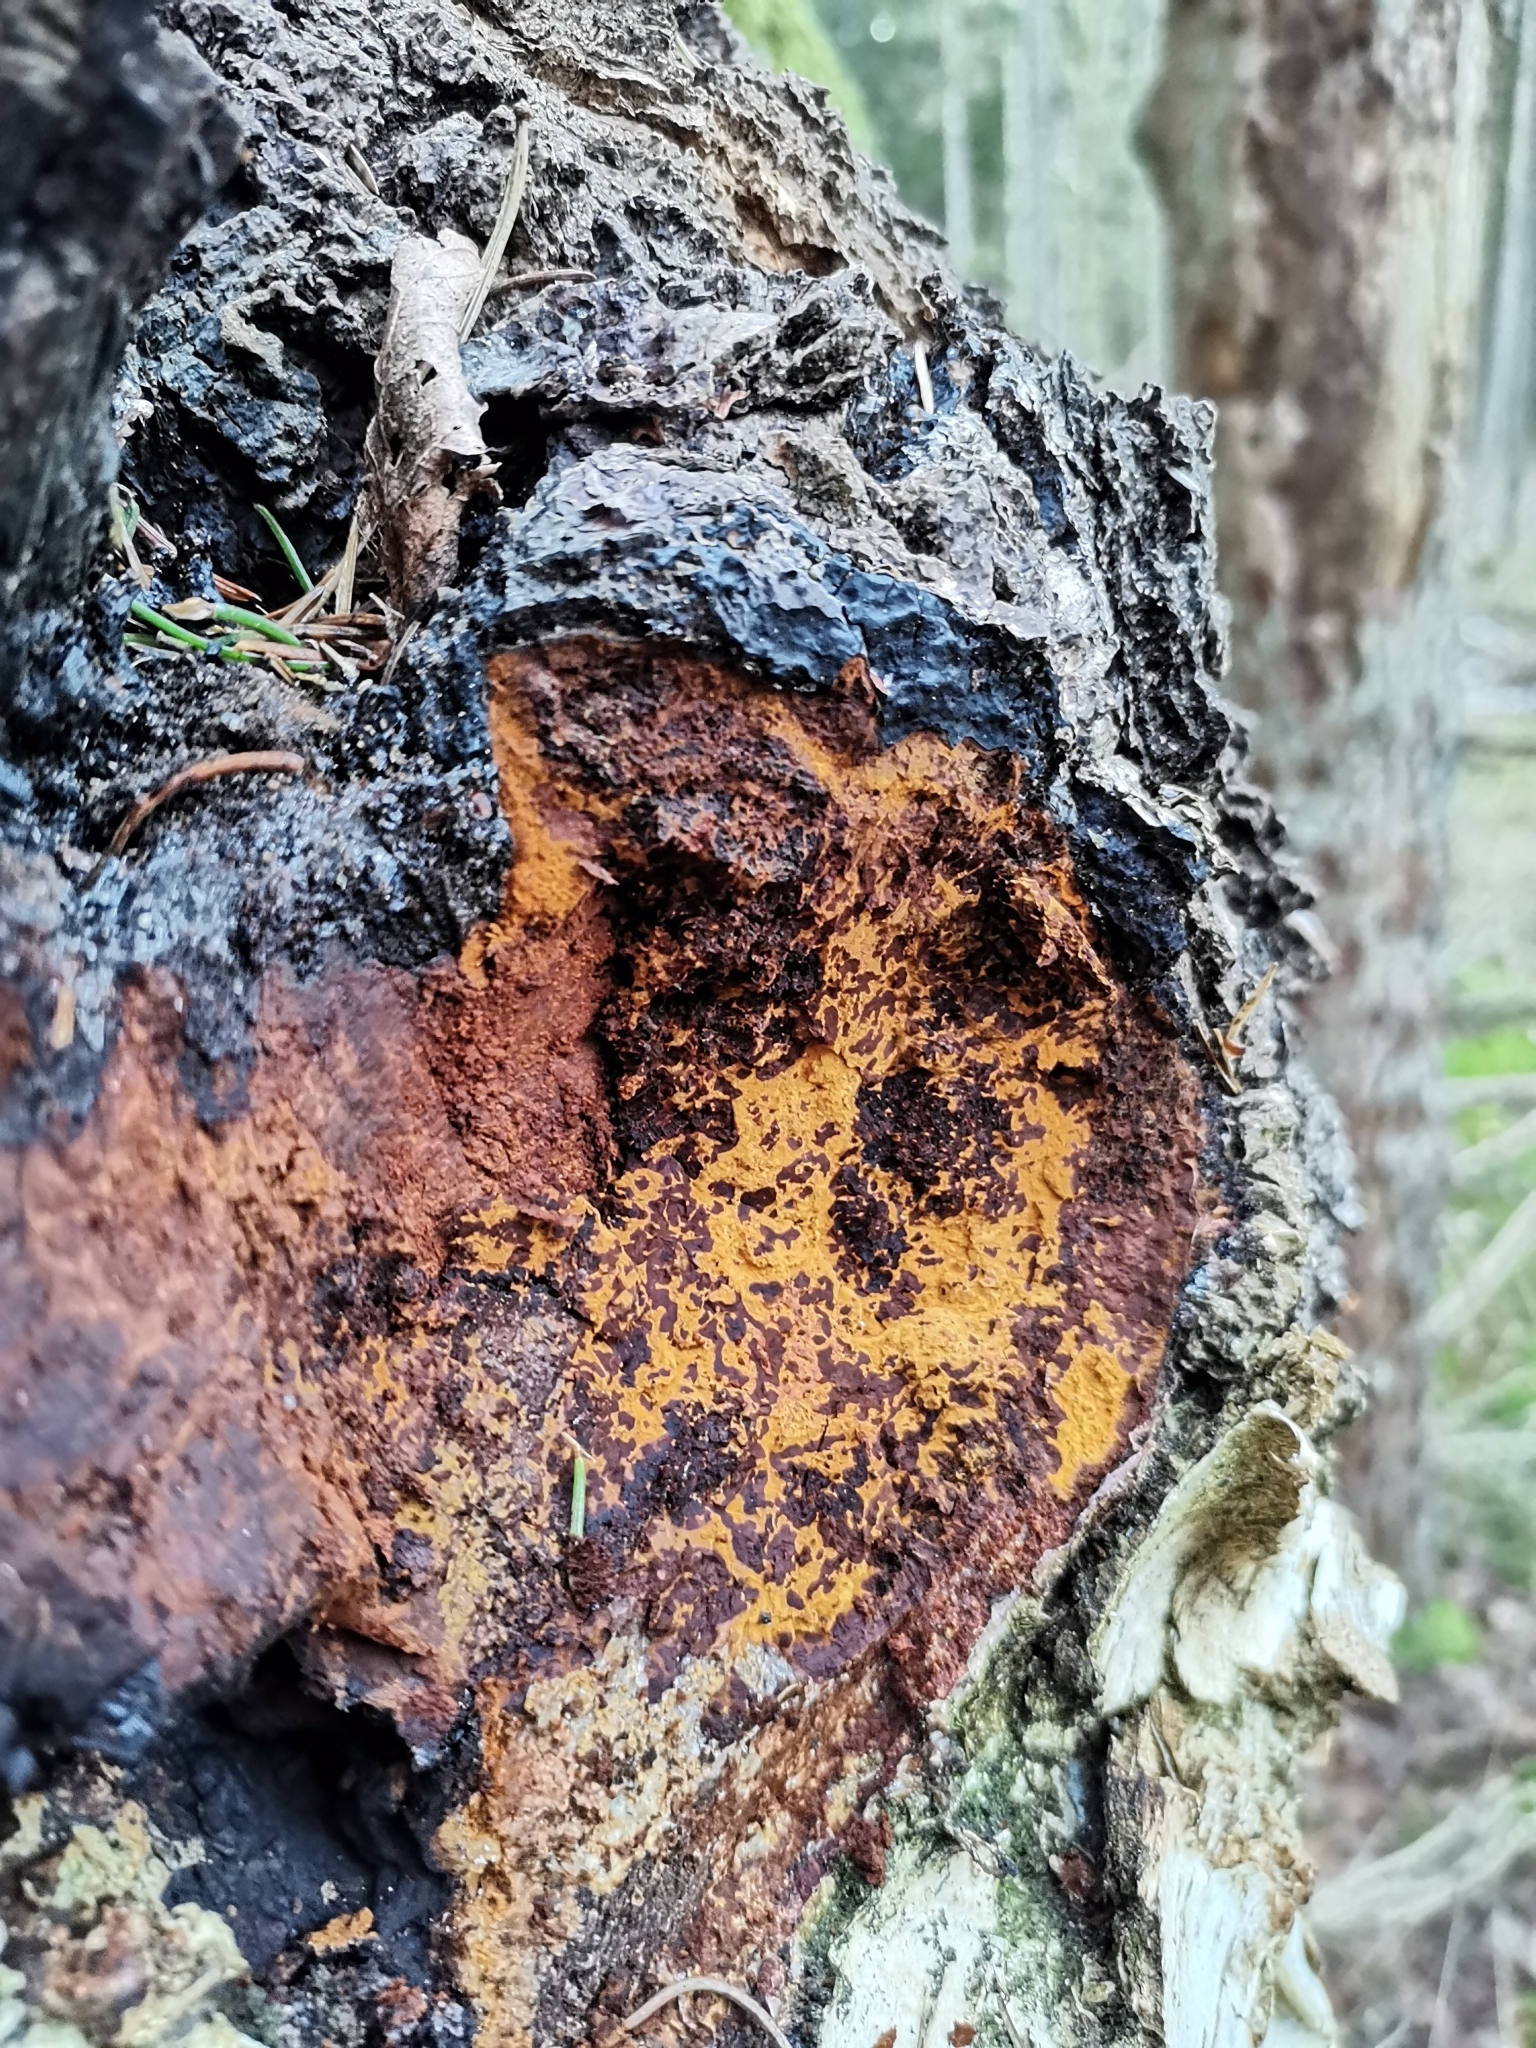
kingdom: Fungi
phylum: Basidiomycota
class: Agaricomycetes
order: Hymenochaetales
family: Hymenochaetaceae
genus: Inonotus
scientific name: Inonotus obliquus
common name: Chaga
